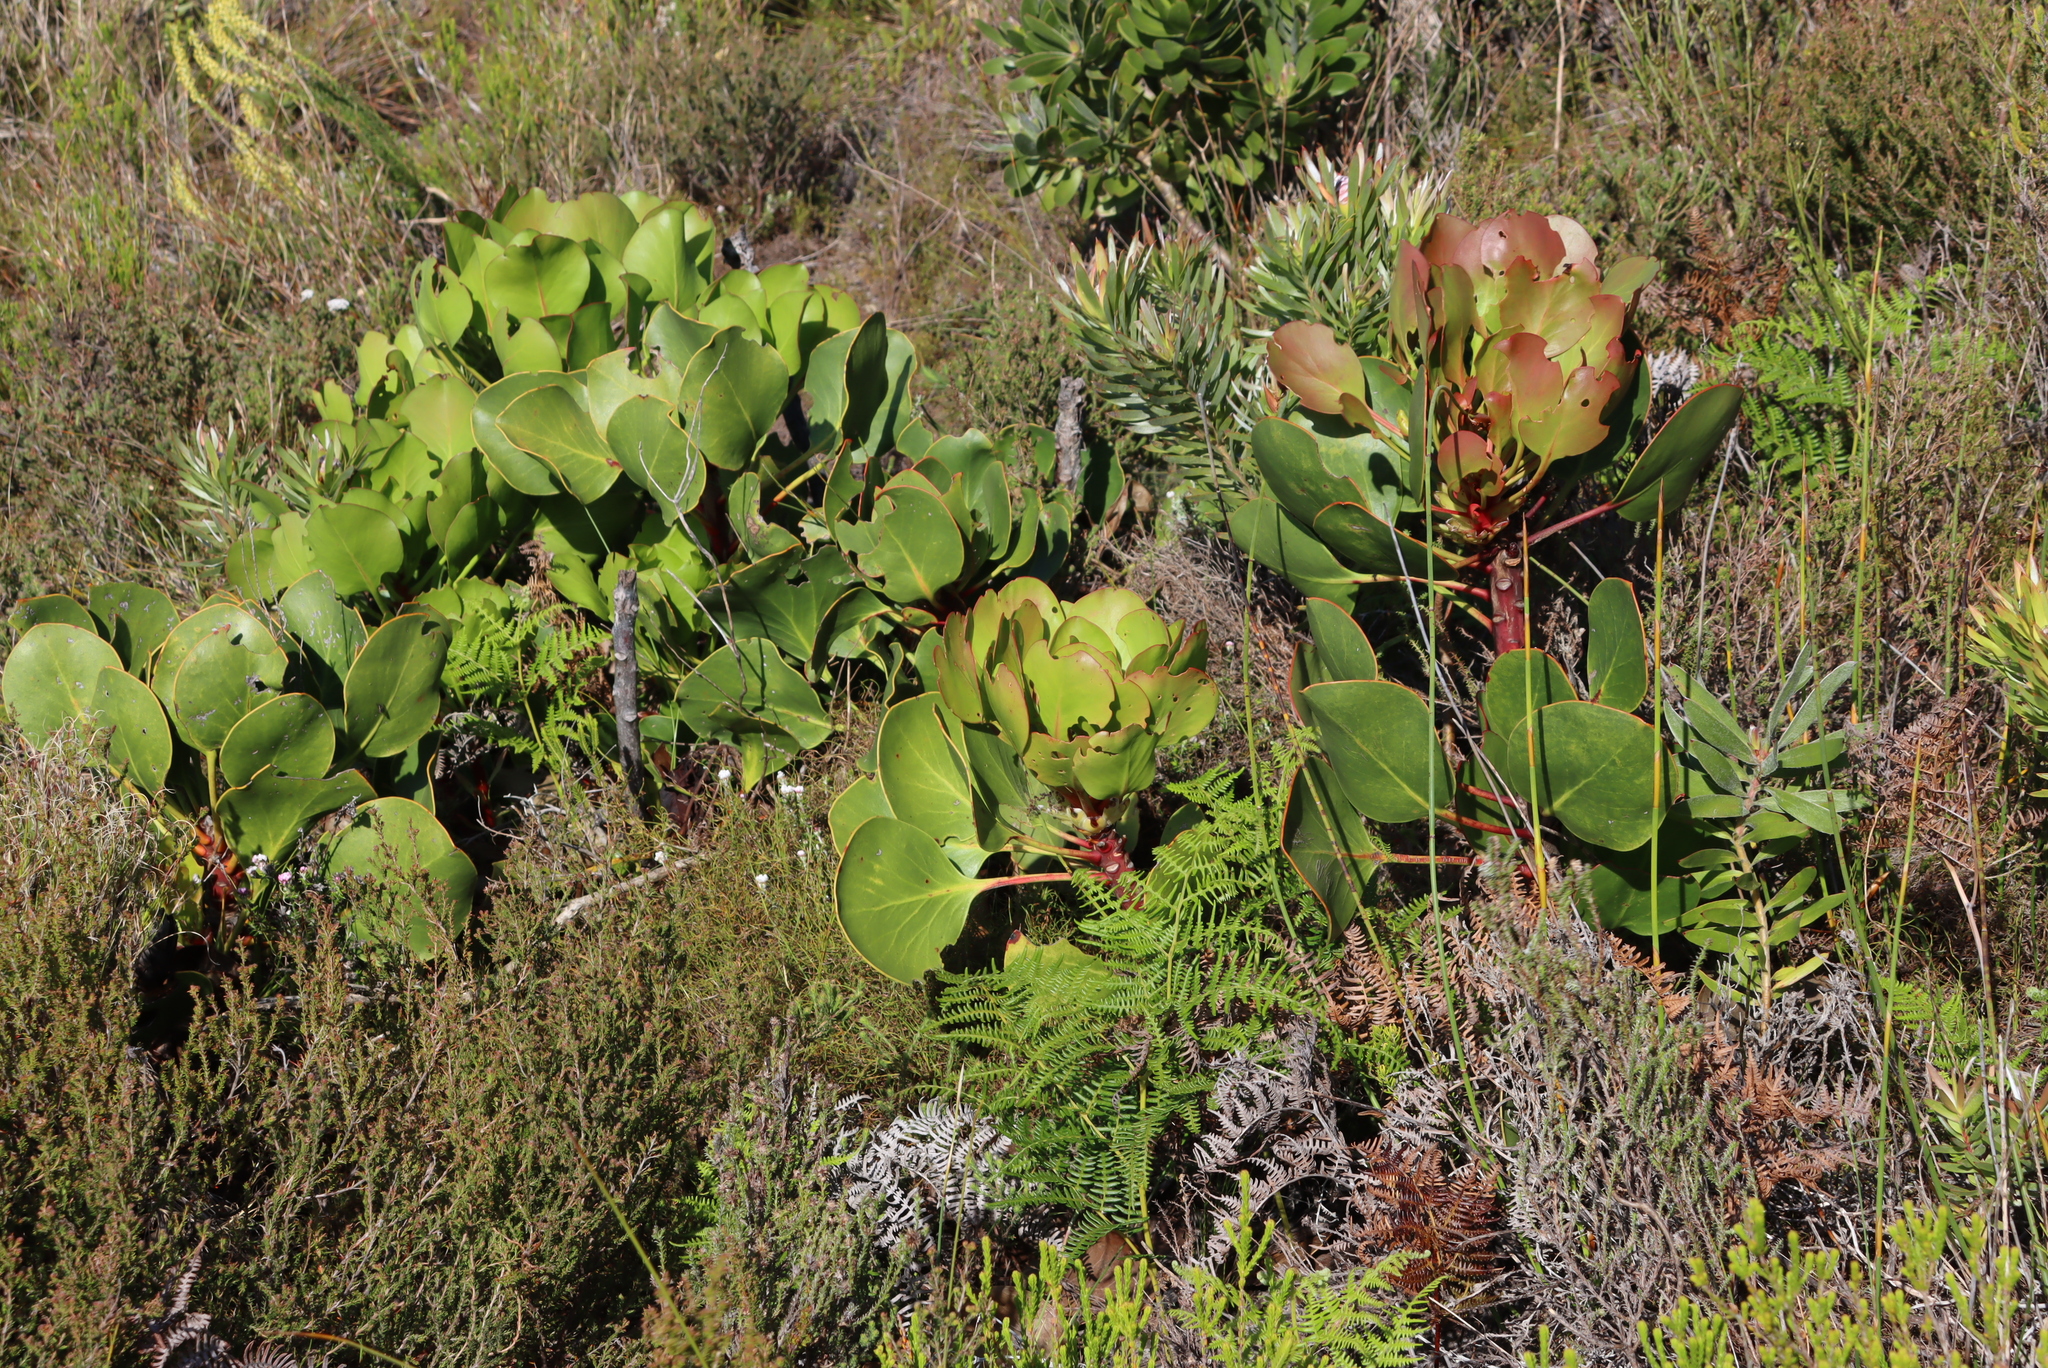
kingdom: Plantae
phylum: Tracheophyta
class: Magnoliopsida
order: Proteales
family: Proteaceae
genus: Protea
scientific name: Protea cynaroides
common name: King protea
